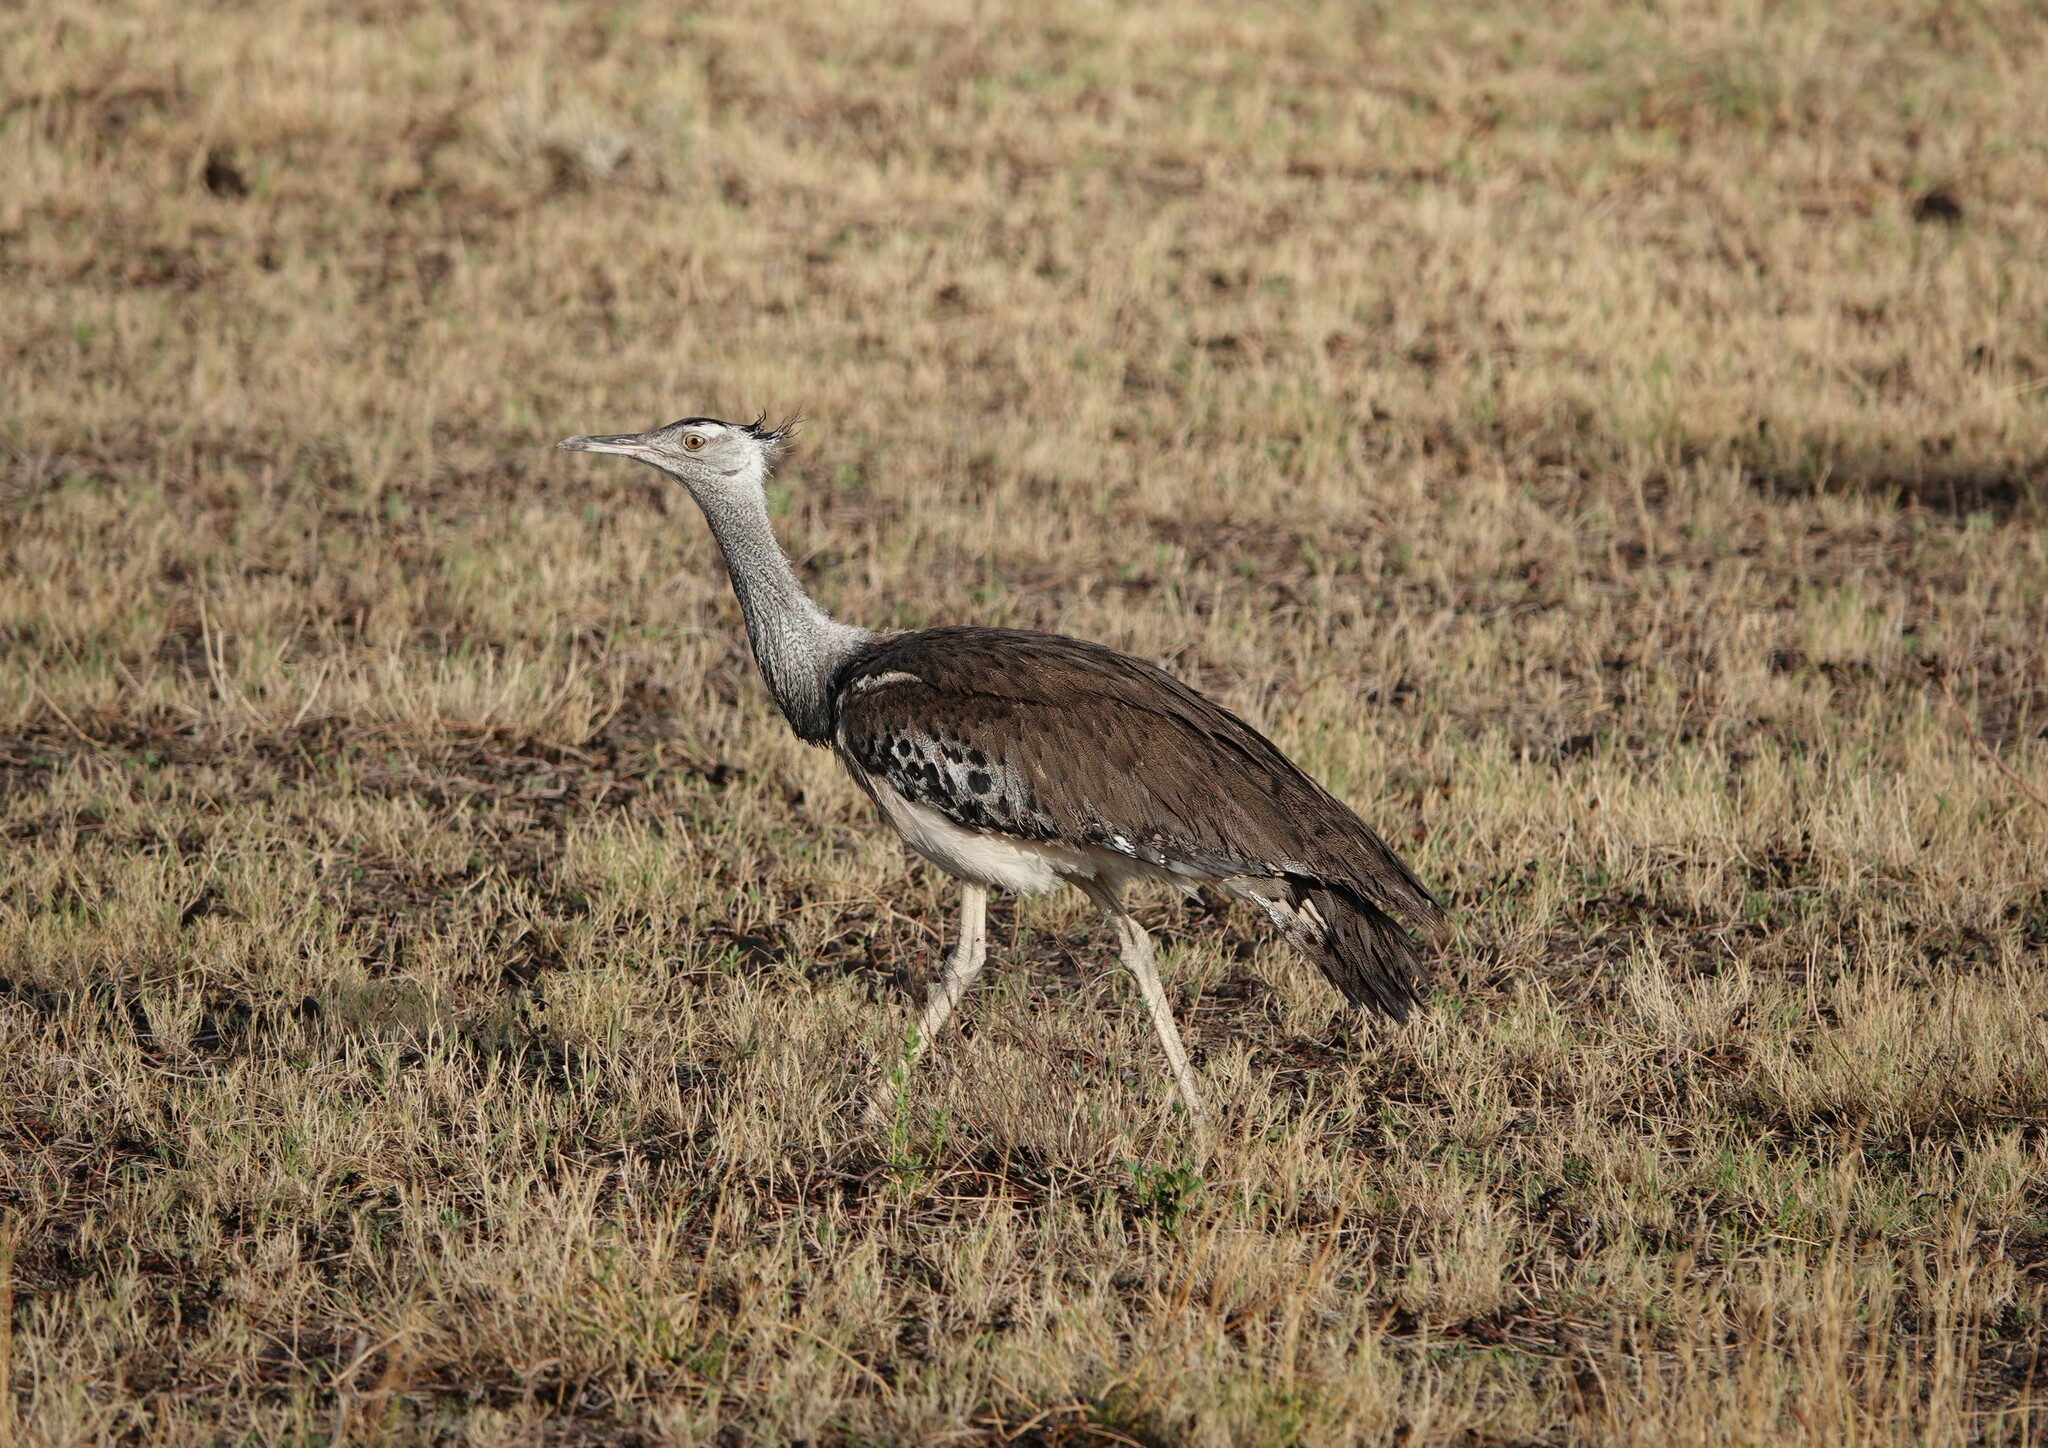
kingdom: Animalia
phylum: Chordata
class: Aves
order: Otidiformes
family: Otididae
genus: Ardeotis
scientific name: Ardeotis kori
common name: Kori bustard
